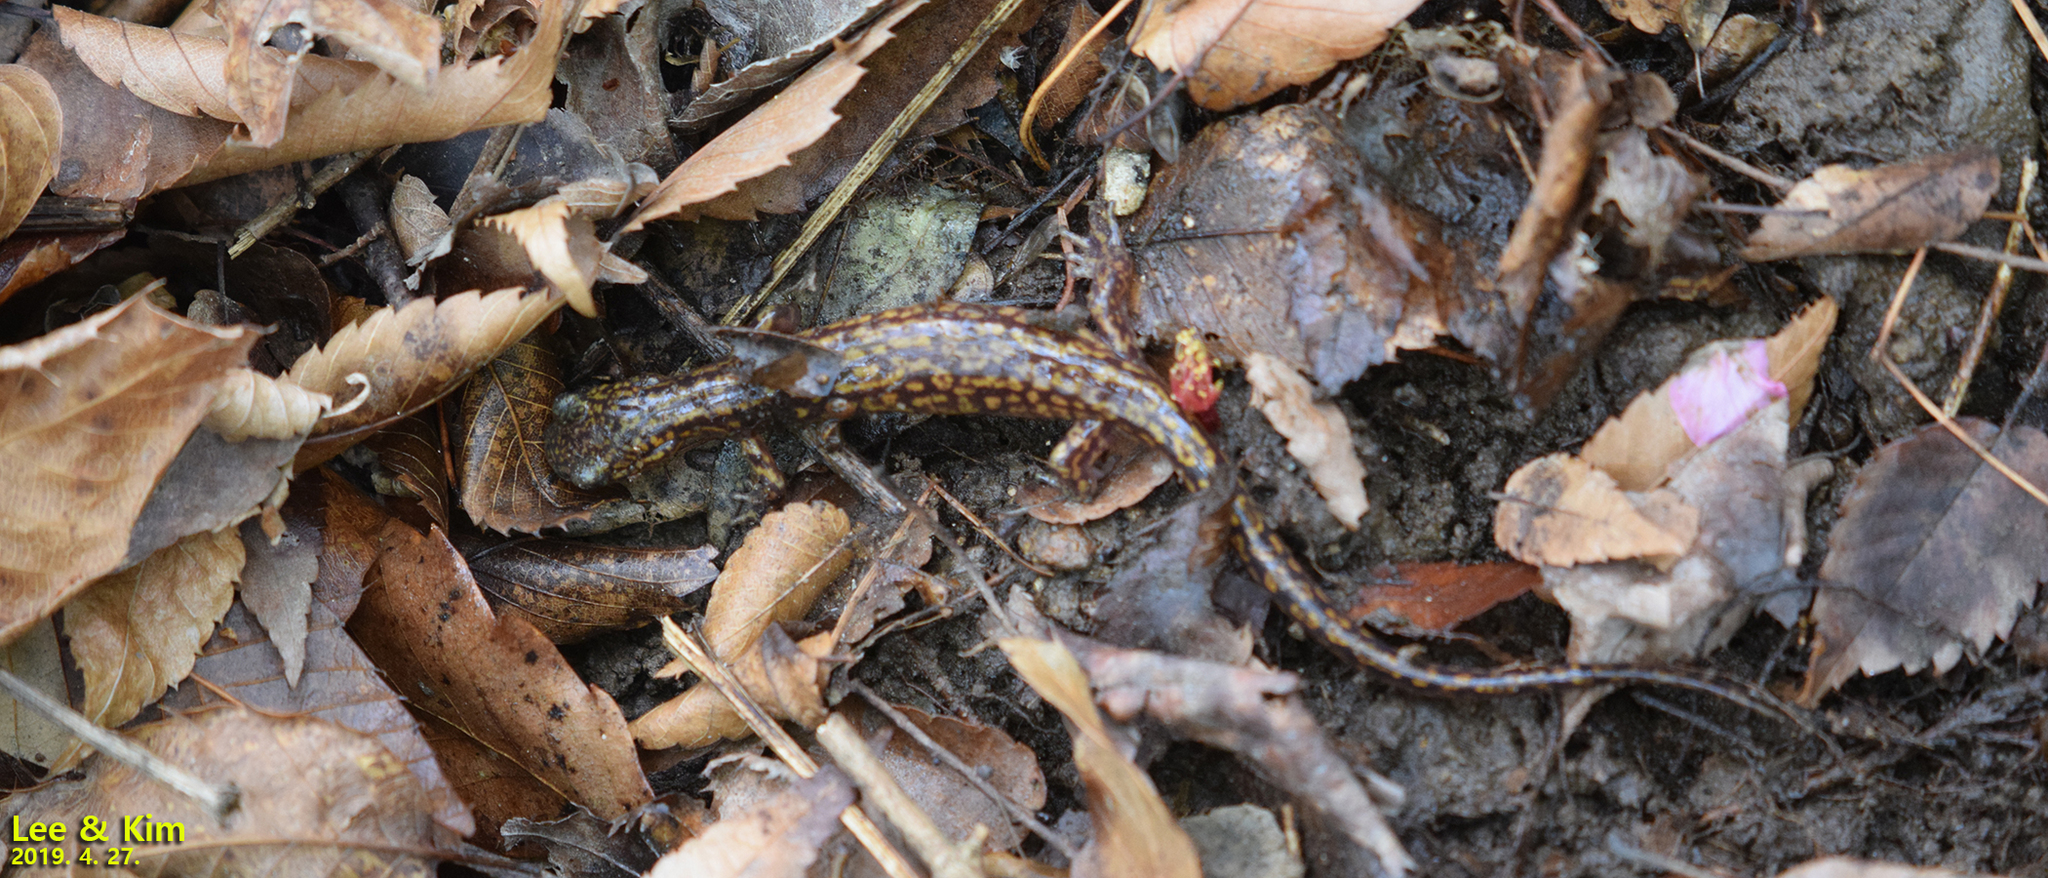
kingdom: Animalia
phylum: Chordata
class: Amphibia
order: Caudata
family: Hynobiidae
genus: Onychodactylus
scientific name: Onychodactylus koreanus
